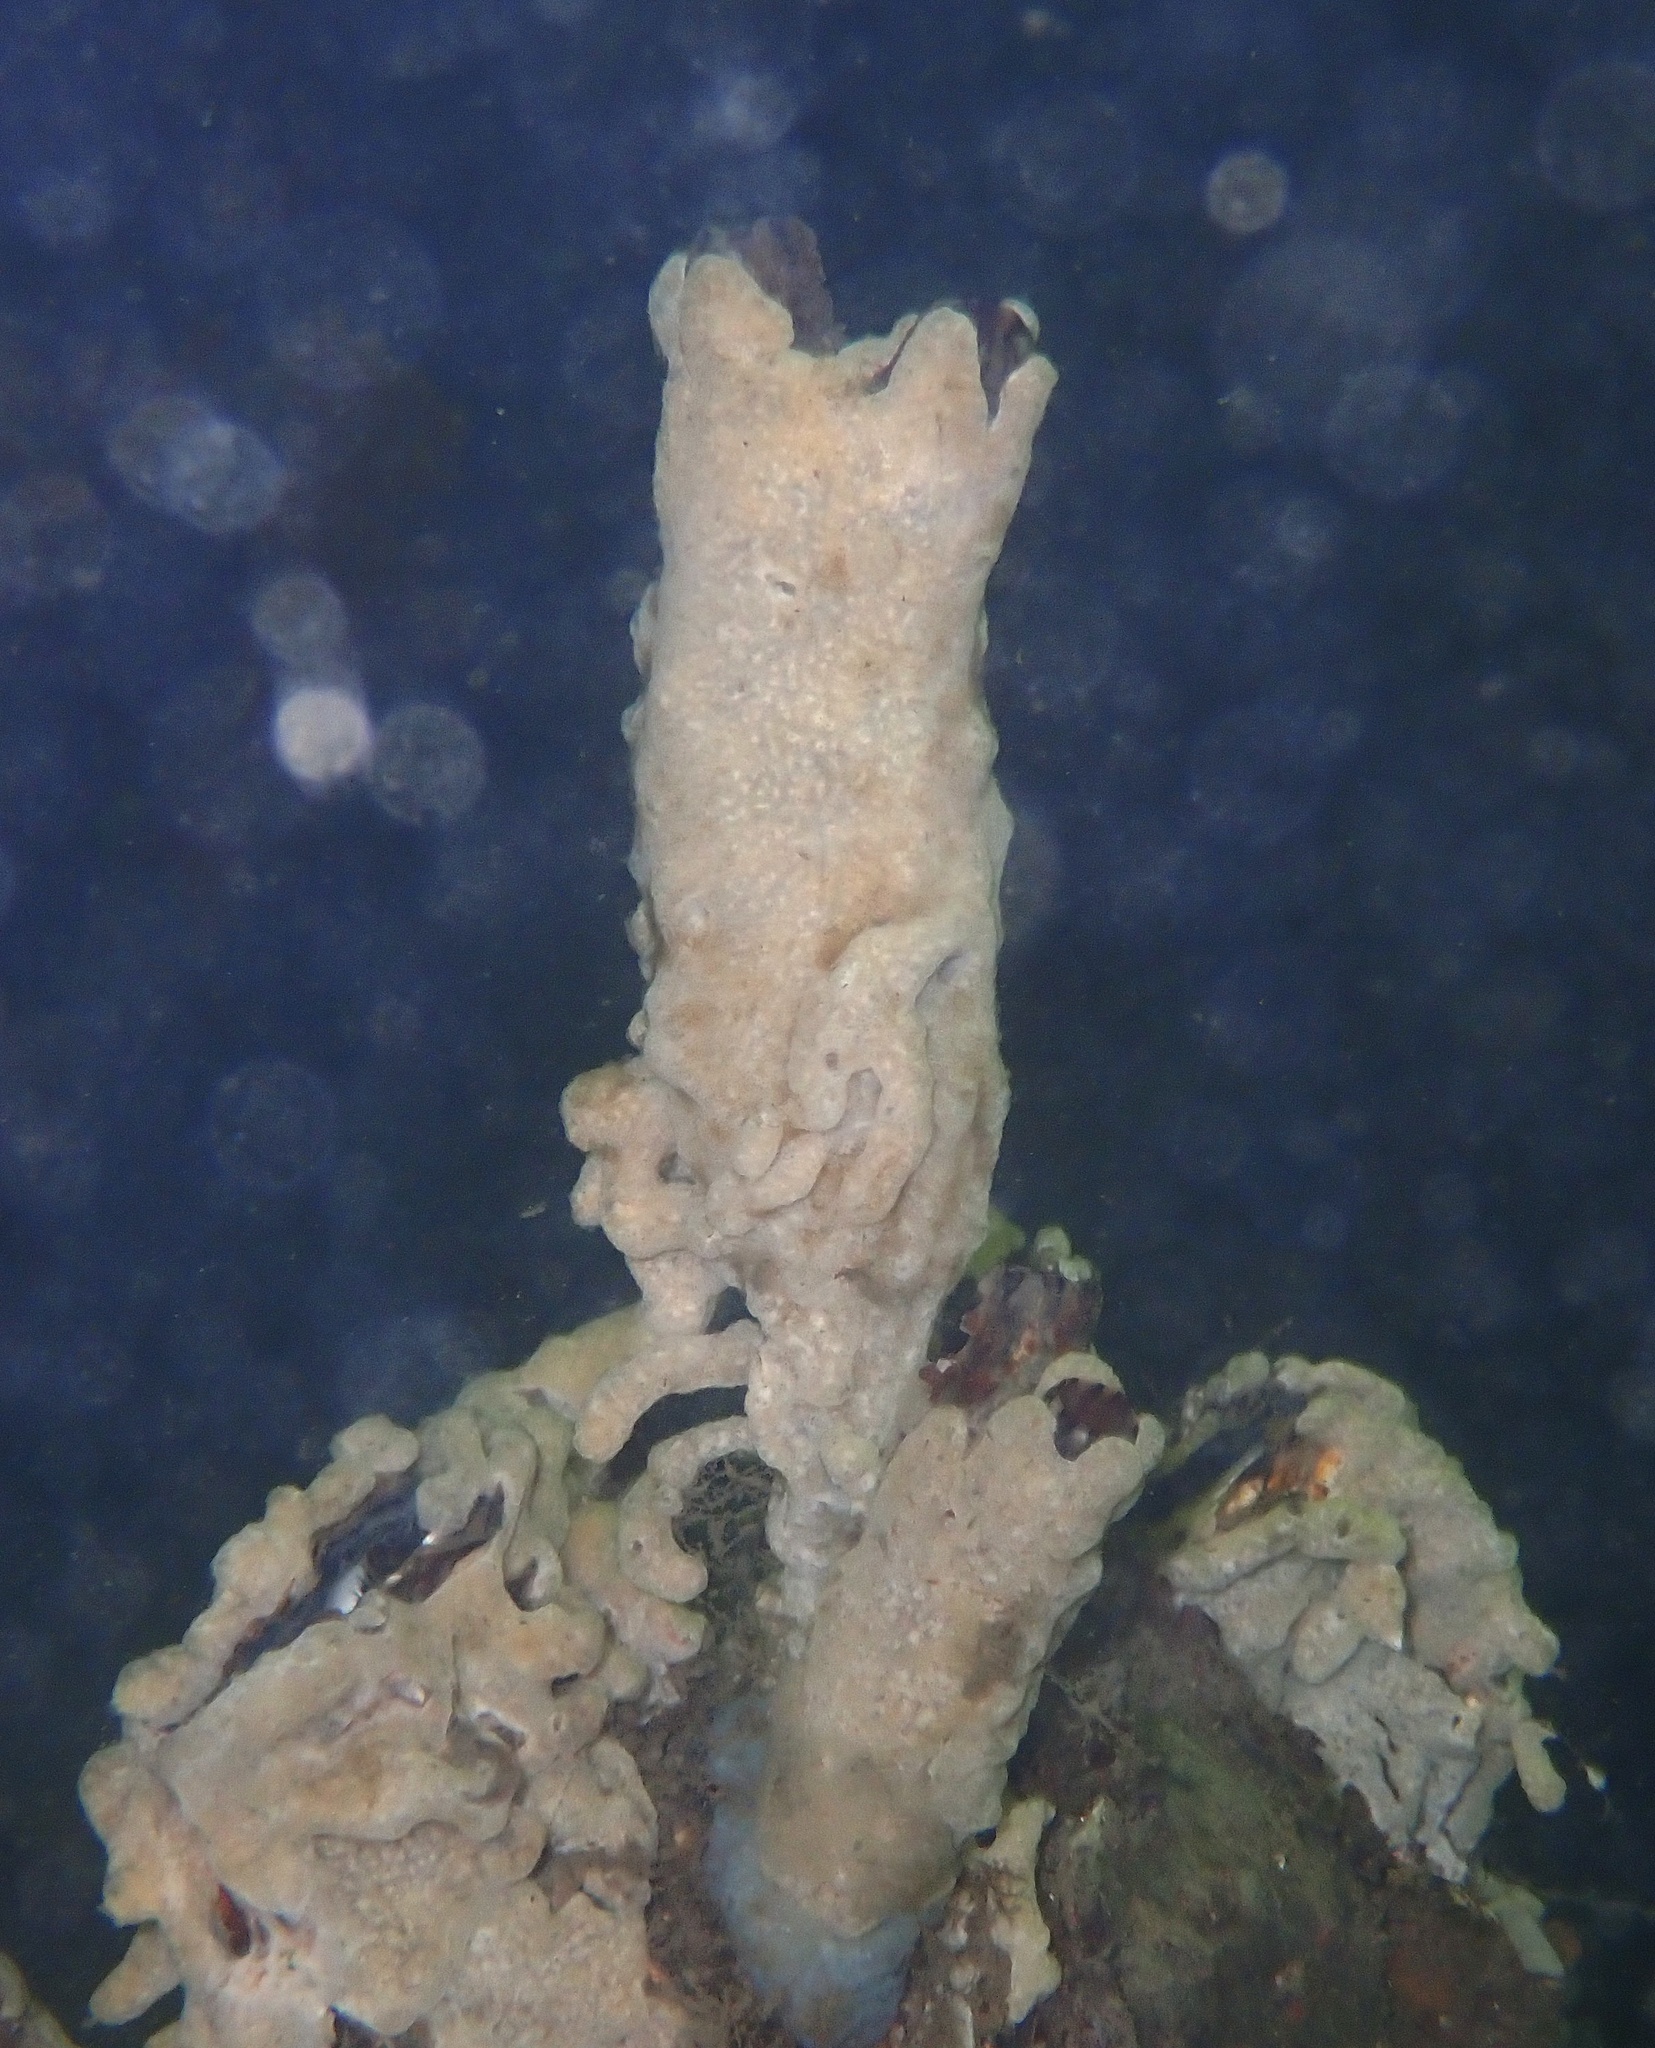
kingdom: Animalia
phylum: Chordata
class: Ascidiacea
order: Aplousobranchia
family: Didemnidae
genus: Didemnum
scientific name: Didemnum vexillum
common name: Compound sea squirt
